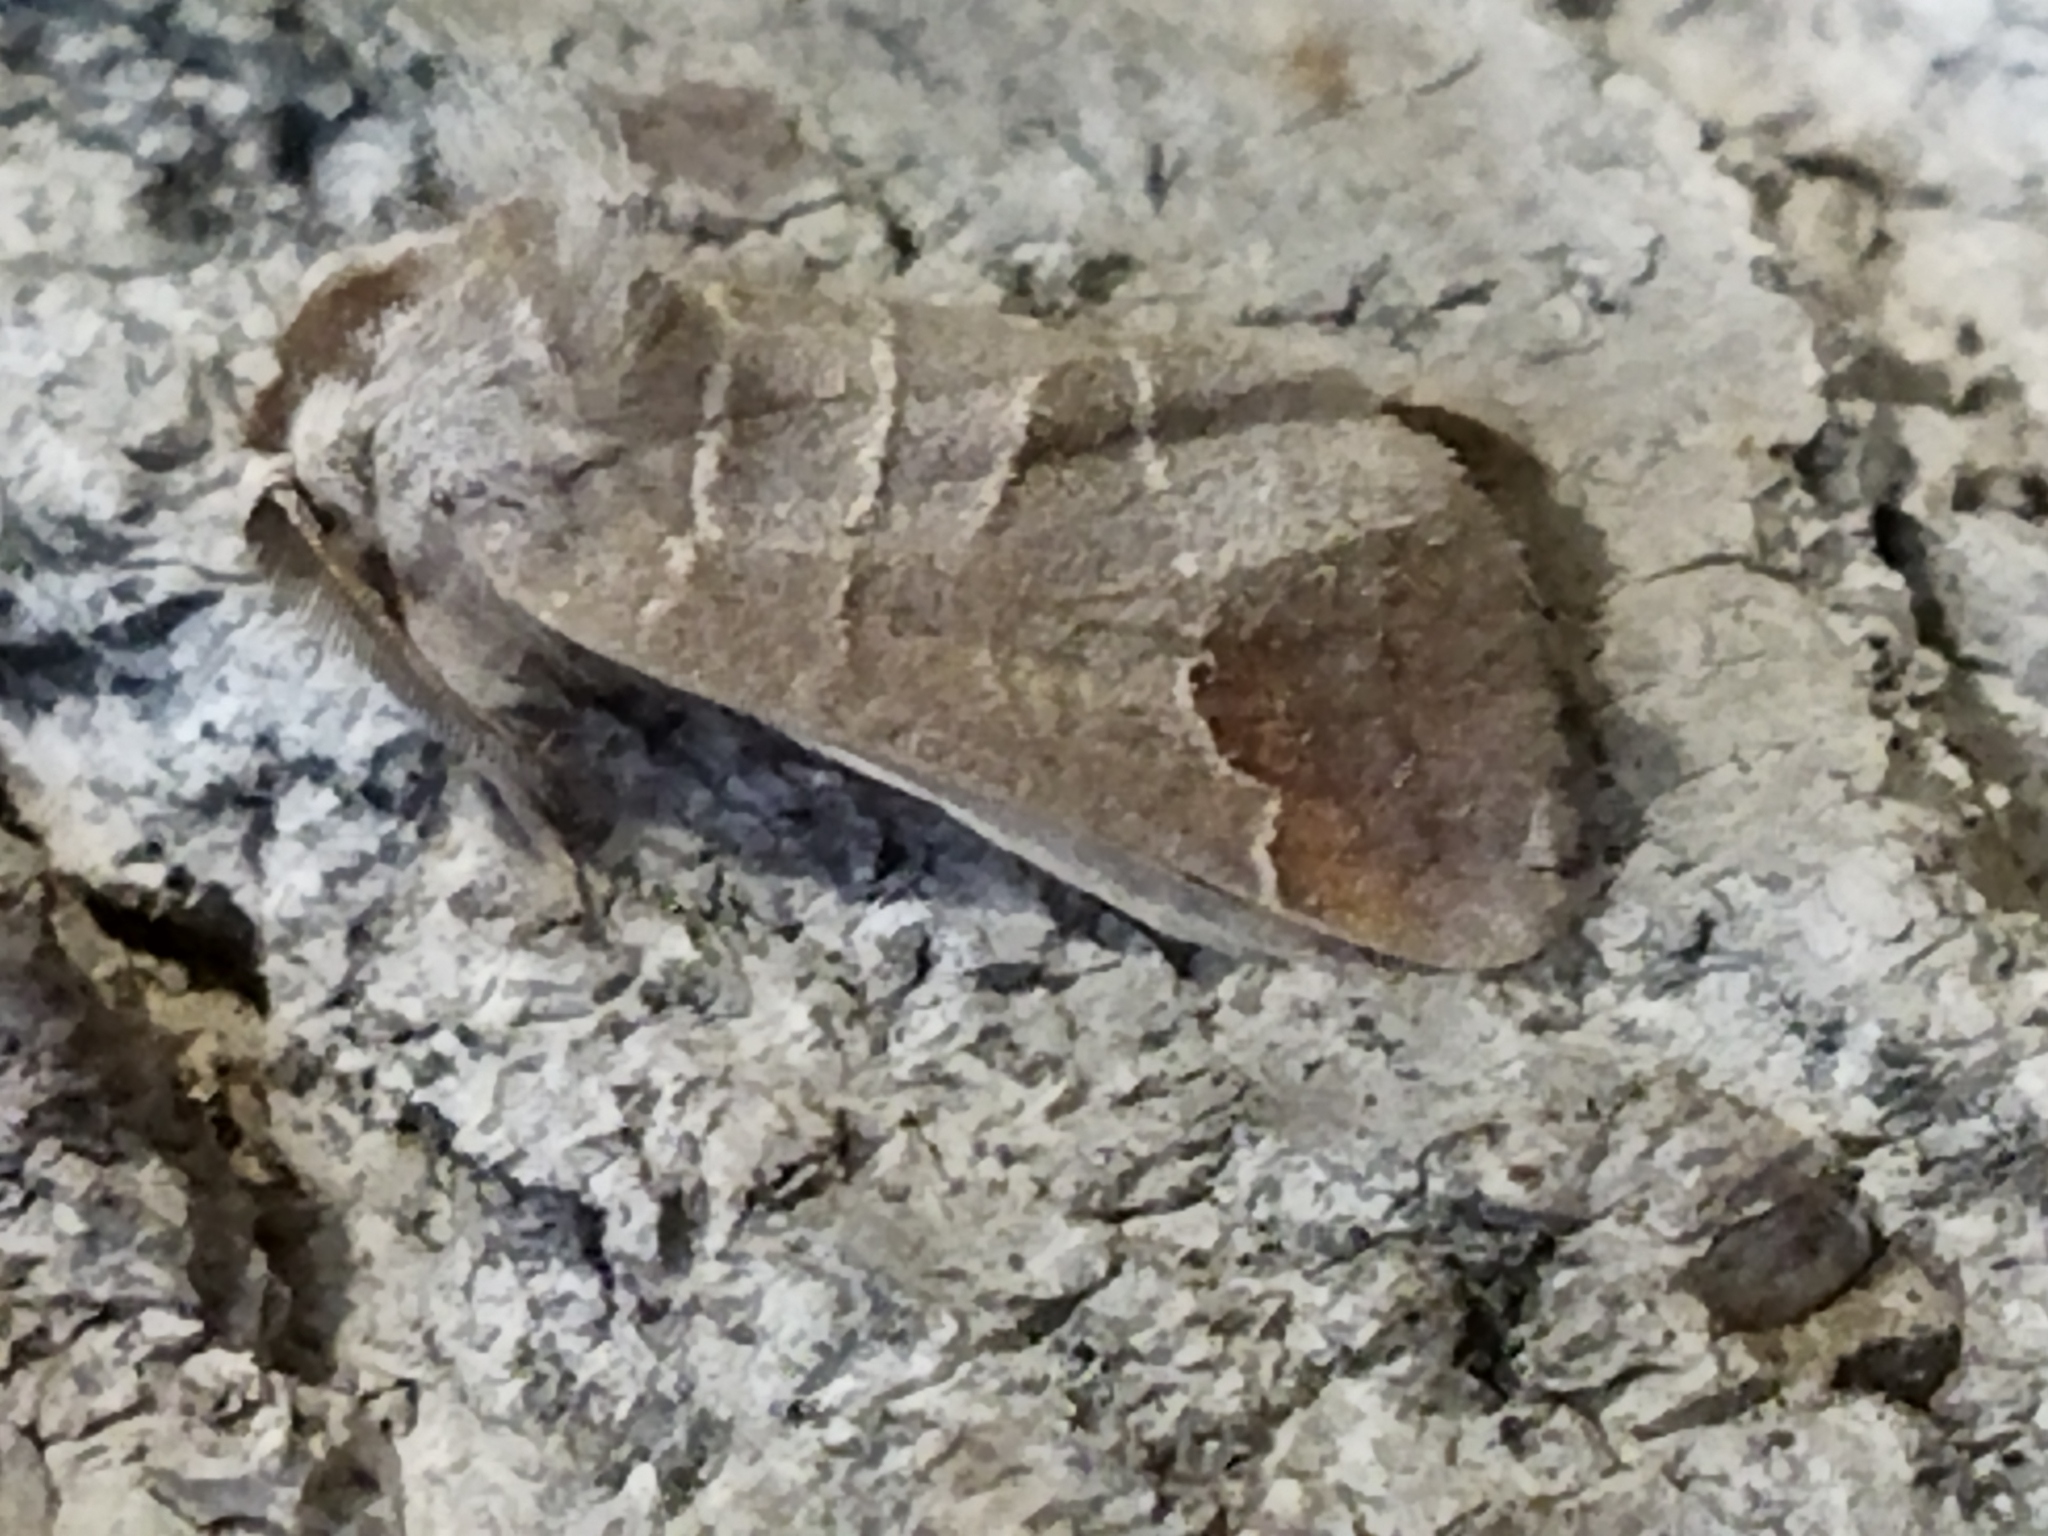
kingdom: Animalia
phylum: Arthropoda
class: Insecta
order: Lepidoptera
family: Notodontidae
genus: Clostera
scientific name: Clostera curtula
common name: Chocolate-tip
